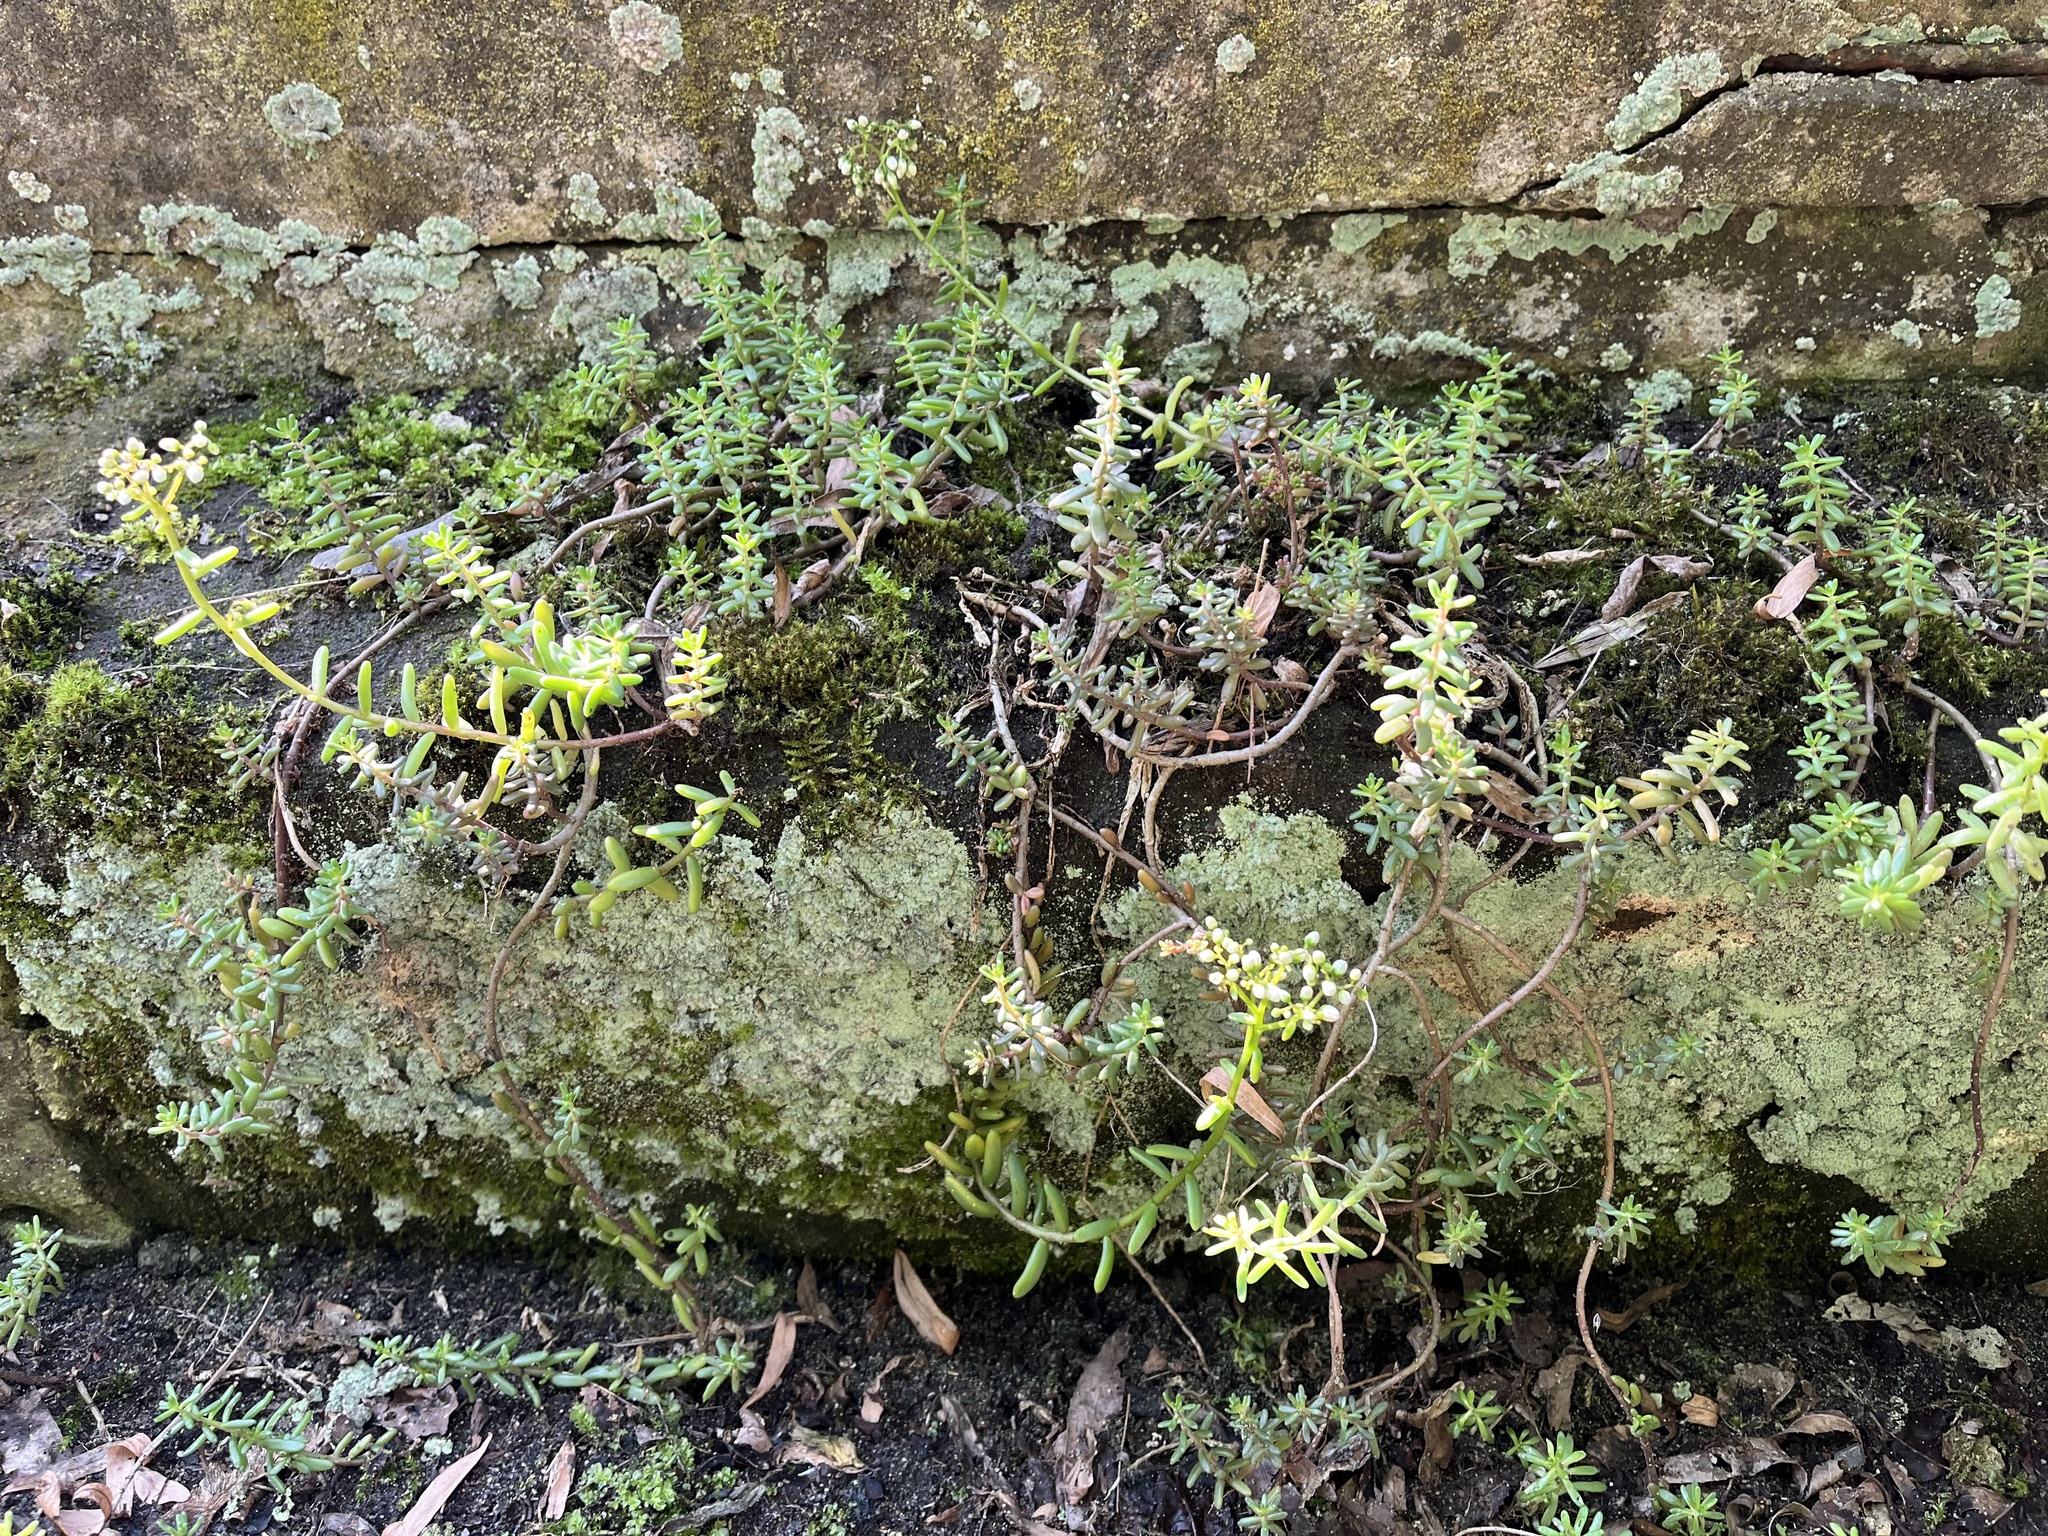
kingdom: Plantae
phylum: Tracheophyta
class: Magnoliopsida
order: Saxifragales
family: Crassulaceae
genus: Sedum
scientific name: Sedum album
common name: White stonecrop
